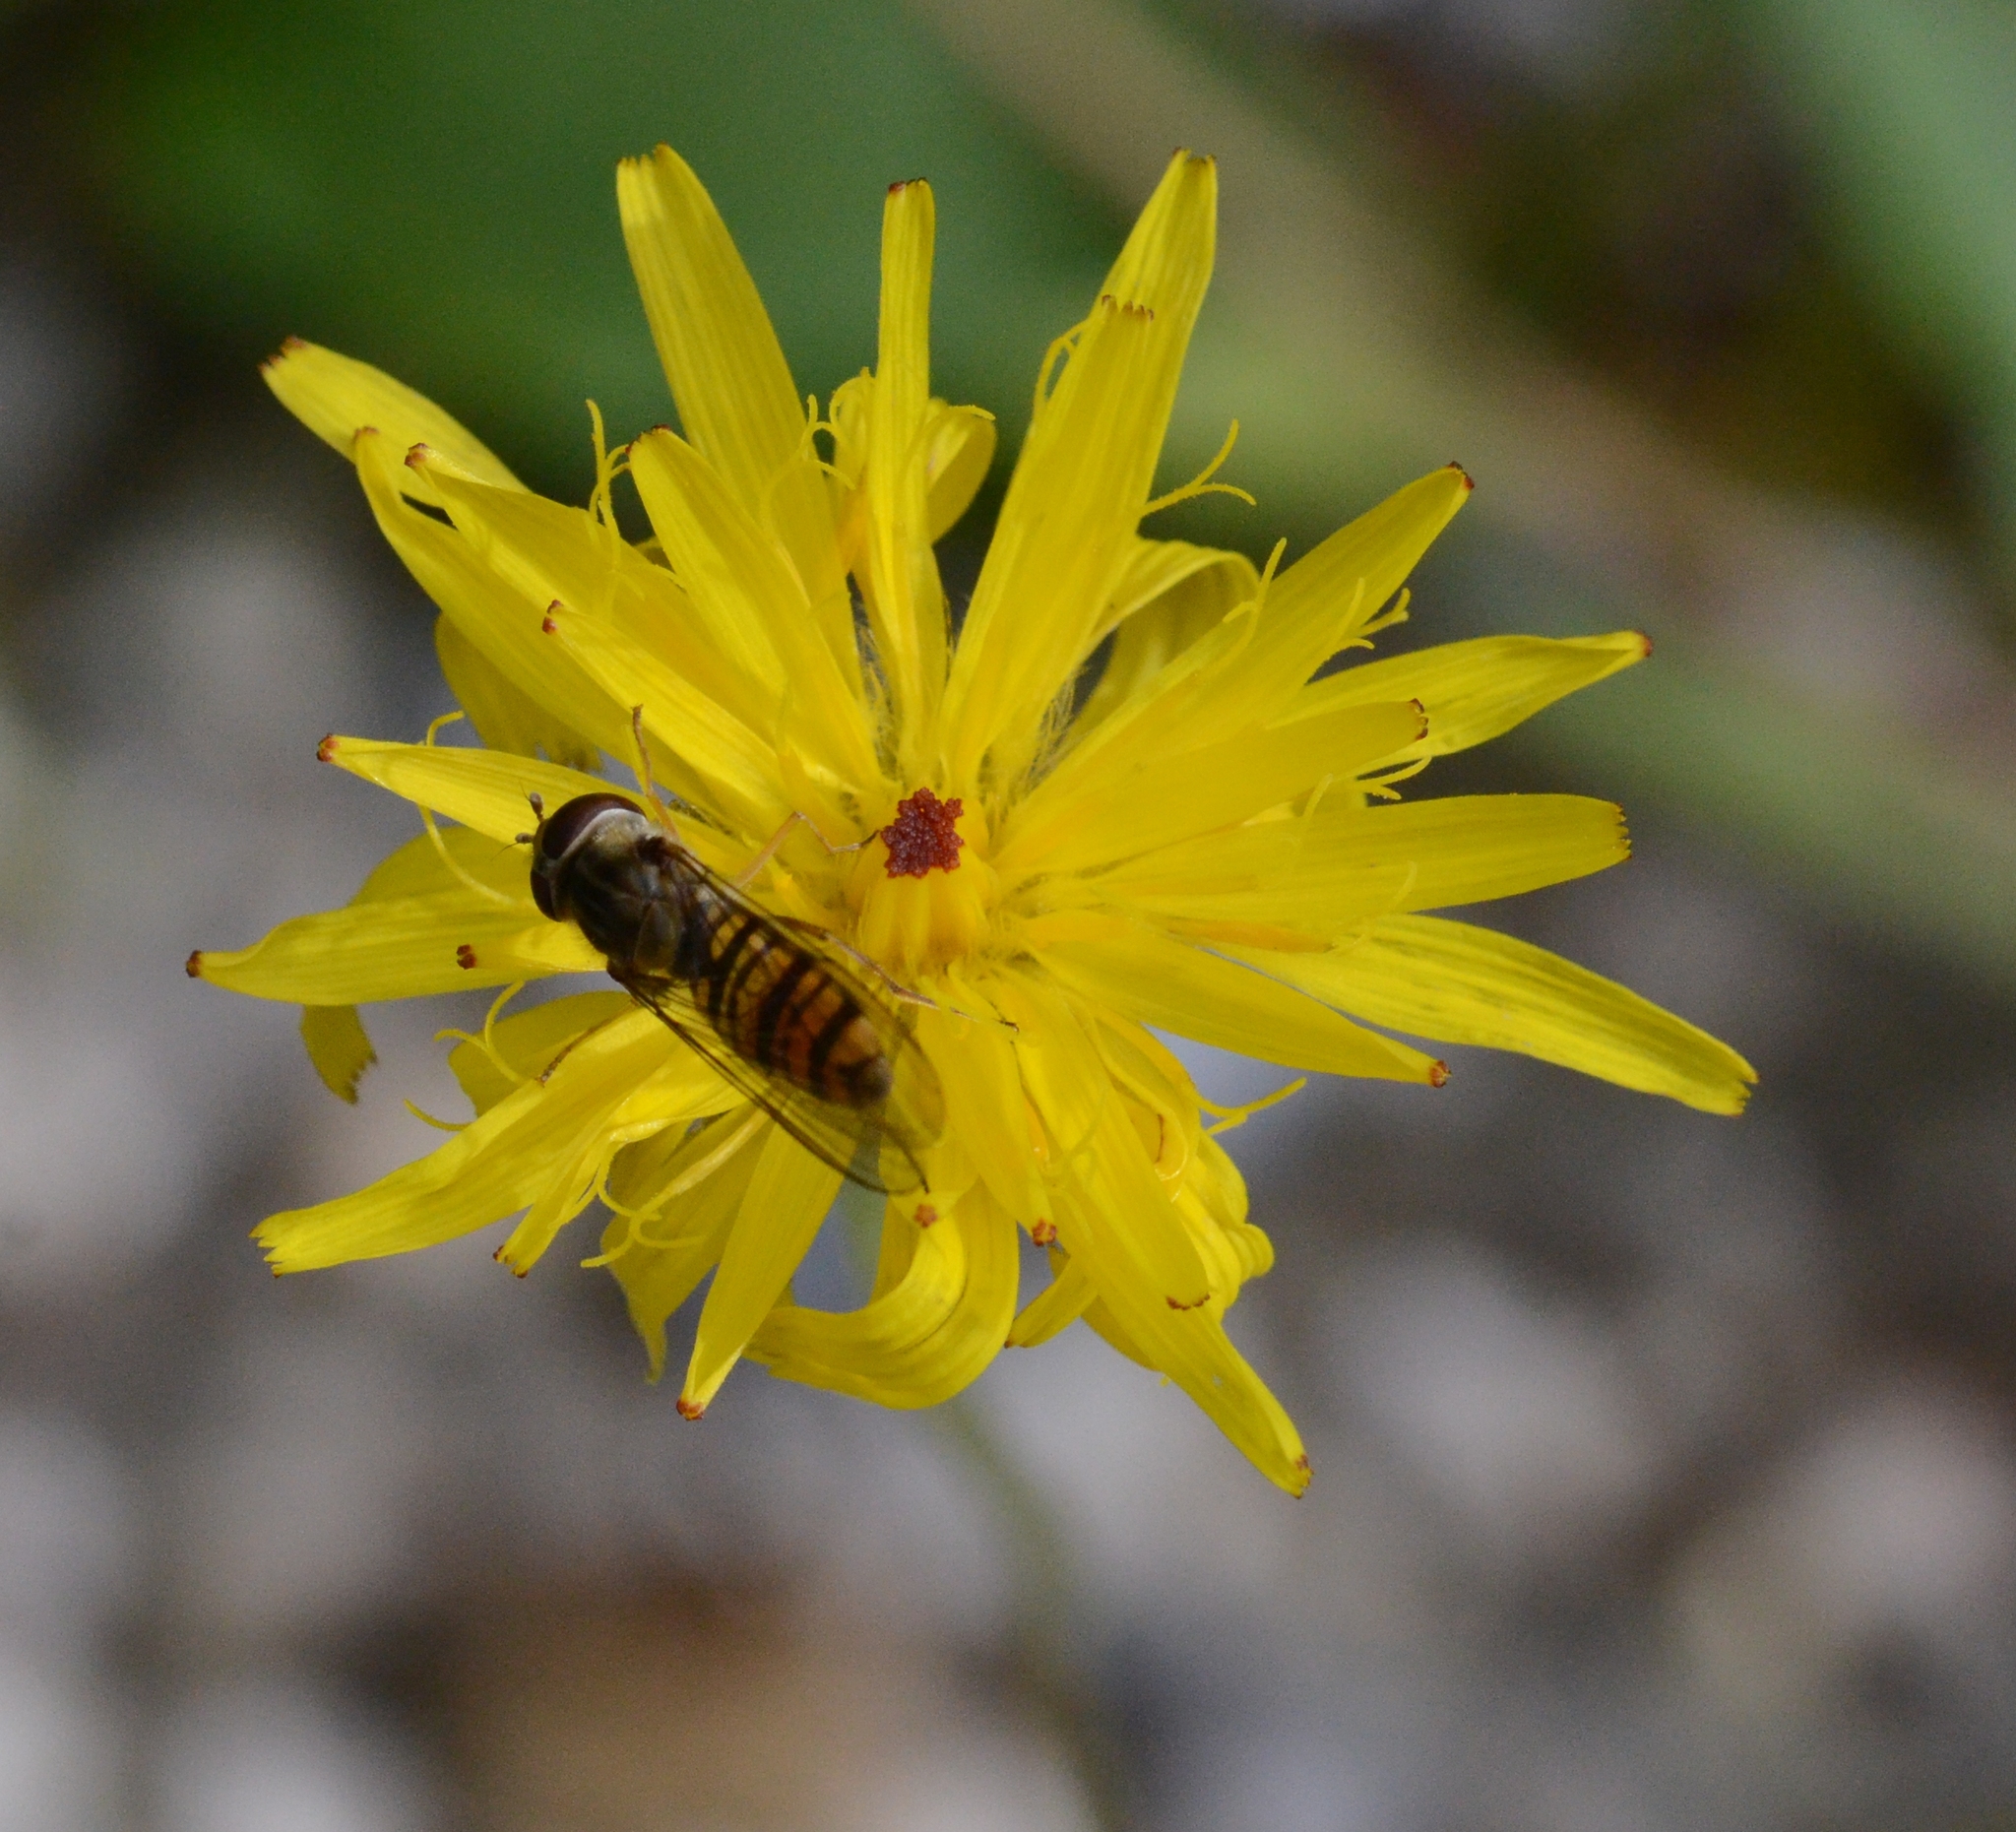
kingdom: Animalia
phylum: Arthropoda
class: Insecta
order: Diptera
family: Syrphidae
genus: Episyrphus
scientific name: Episyrphus balteatus
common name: Marmalade hoverfly
